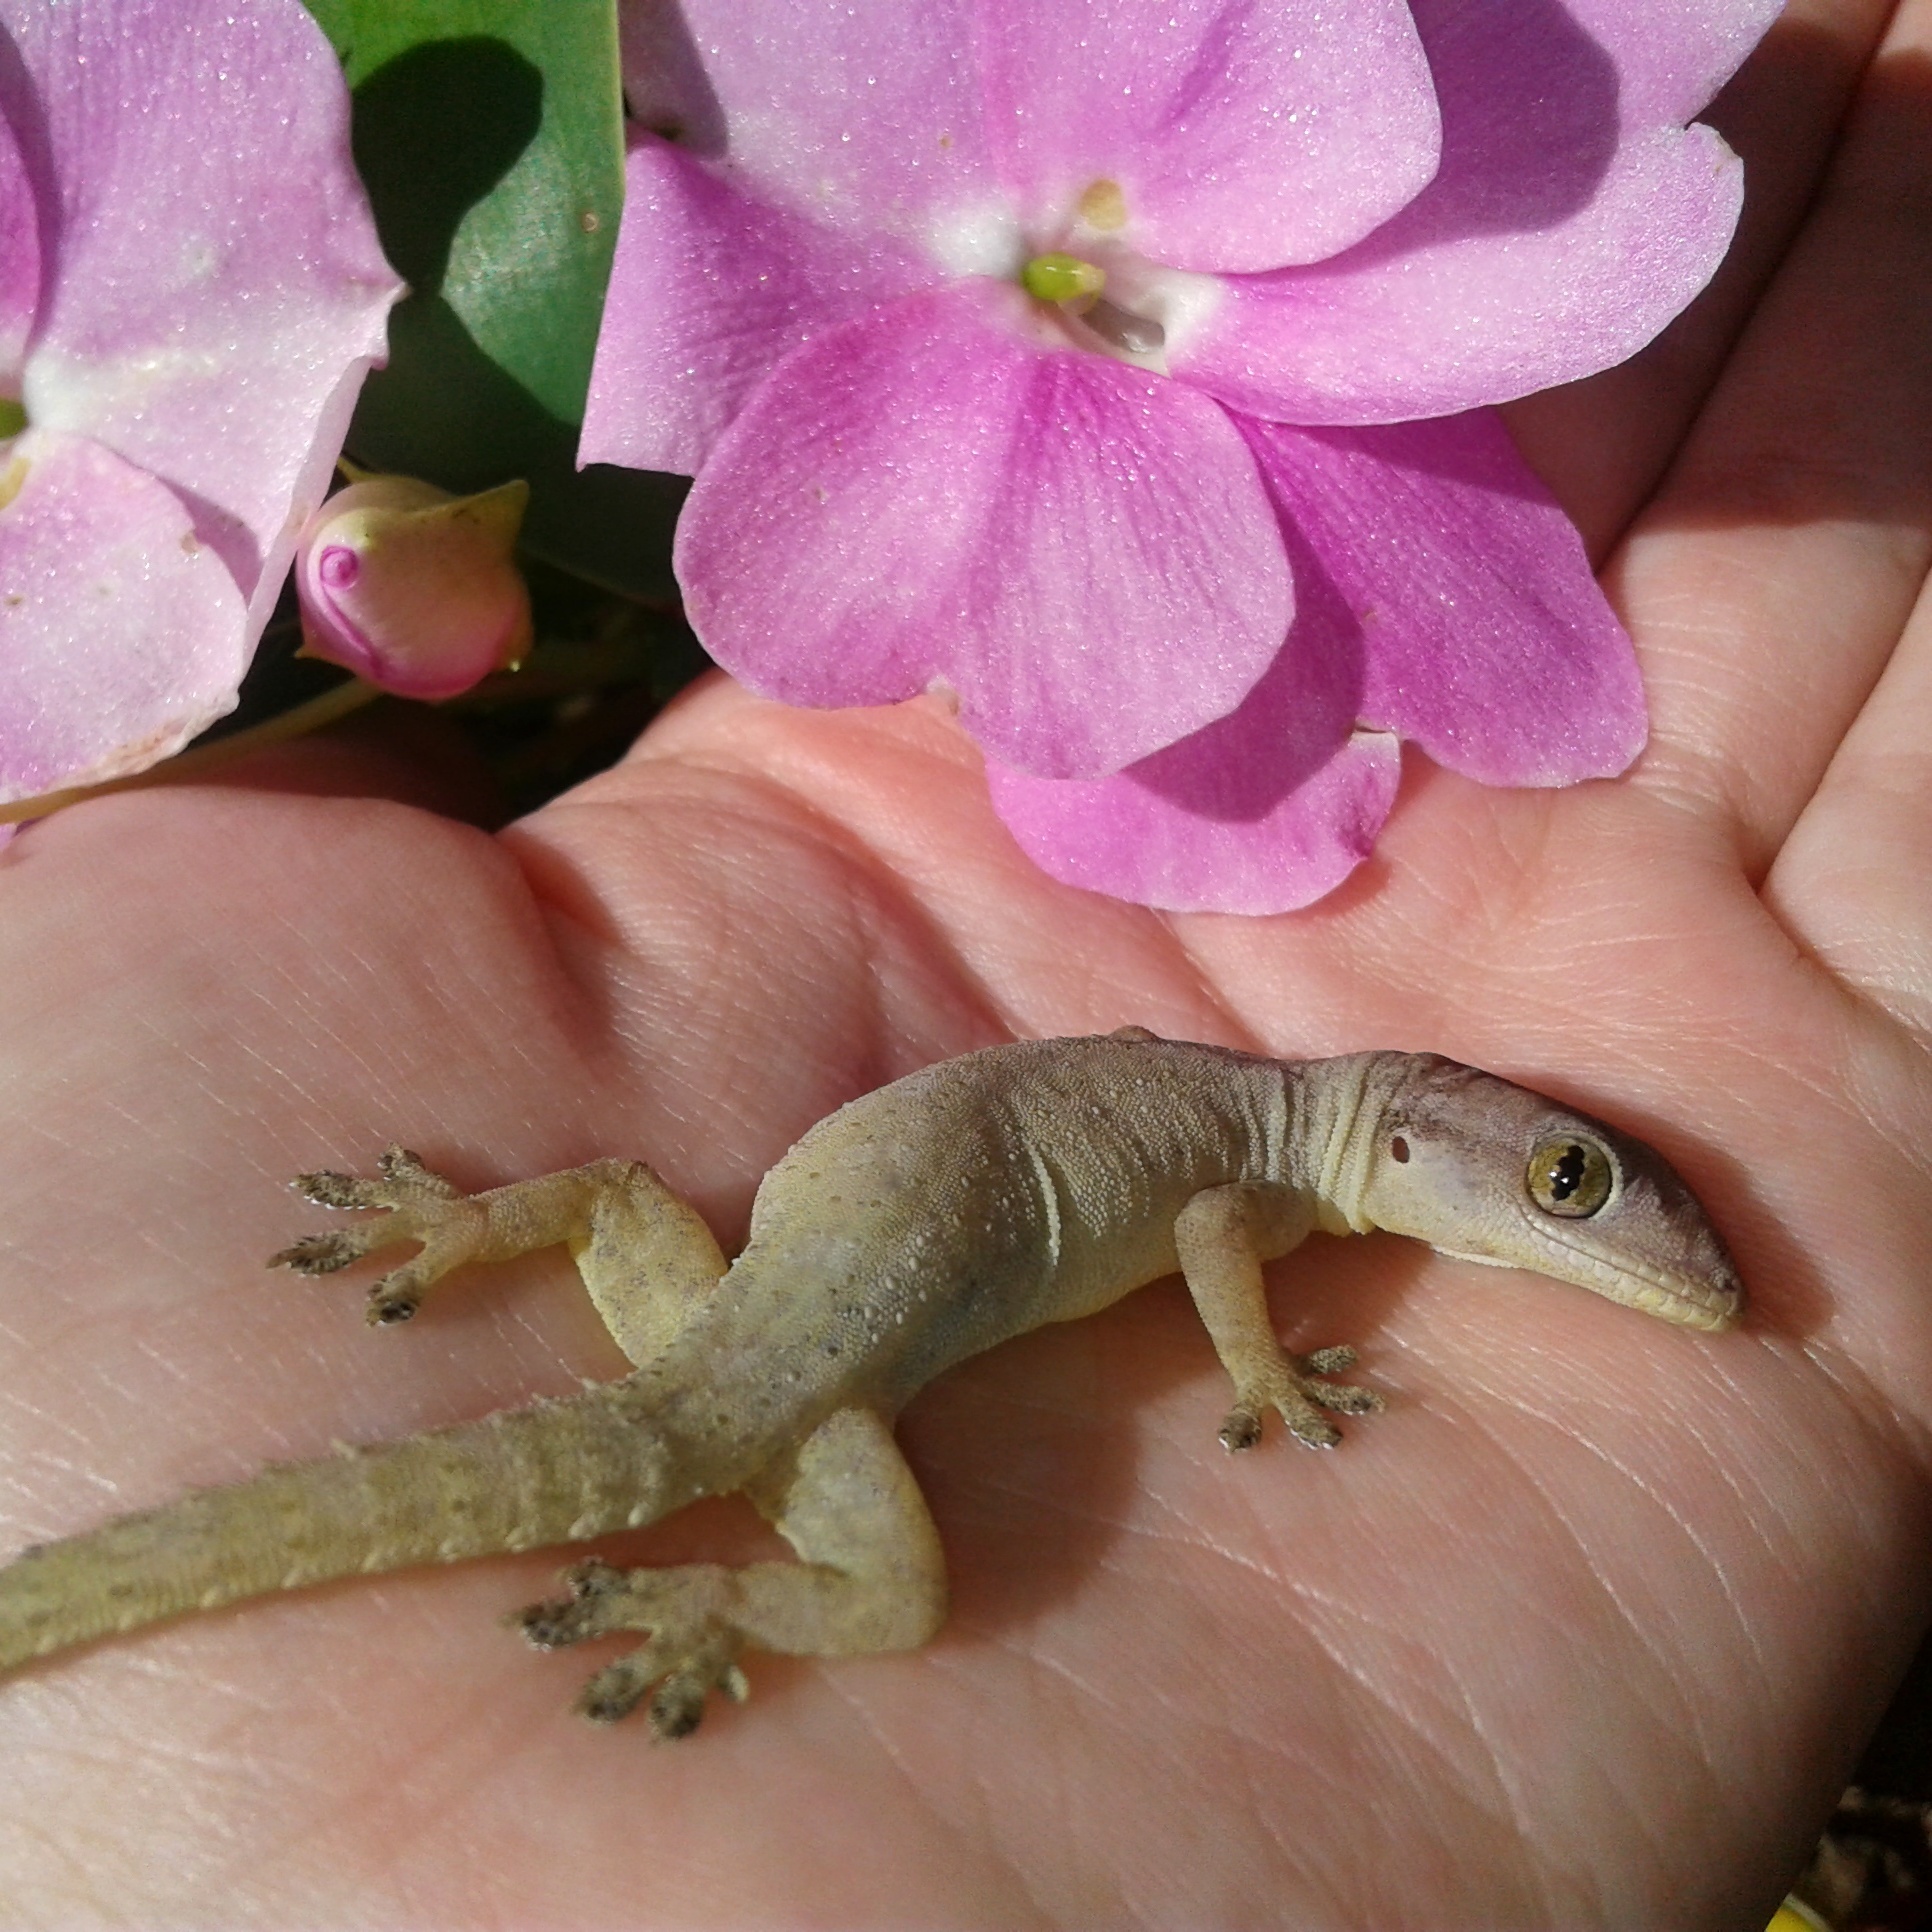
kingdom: Animalia
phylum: Chordata
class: Squamata
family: Gekkonidae
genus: Hemidactylus
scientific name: Hemidactylus frenatus
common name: Common house gecko
